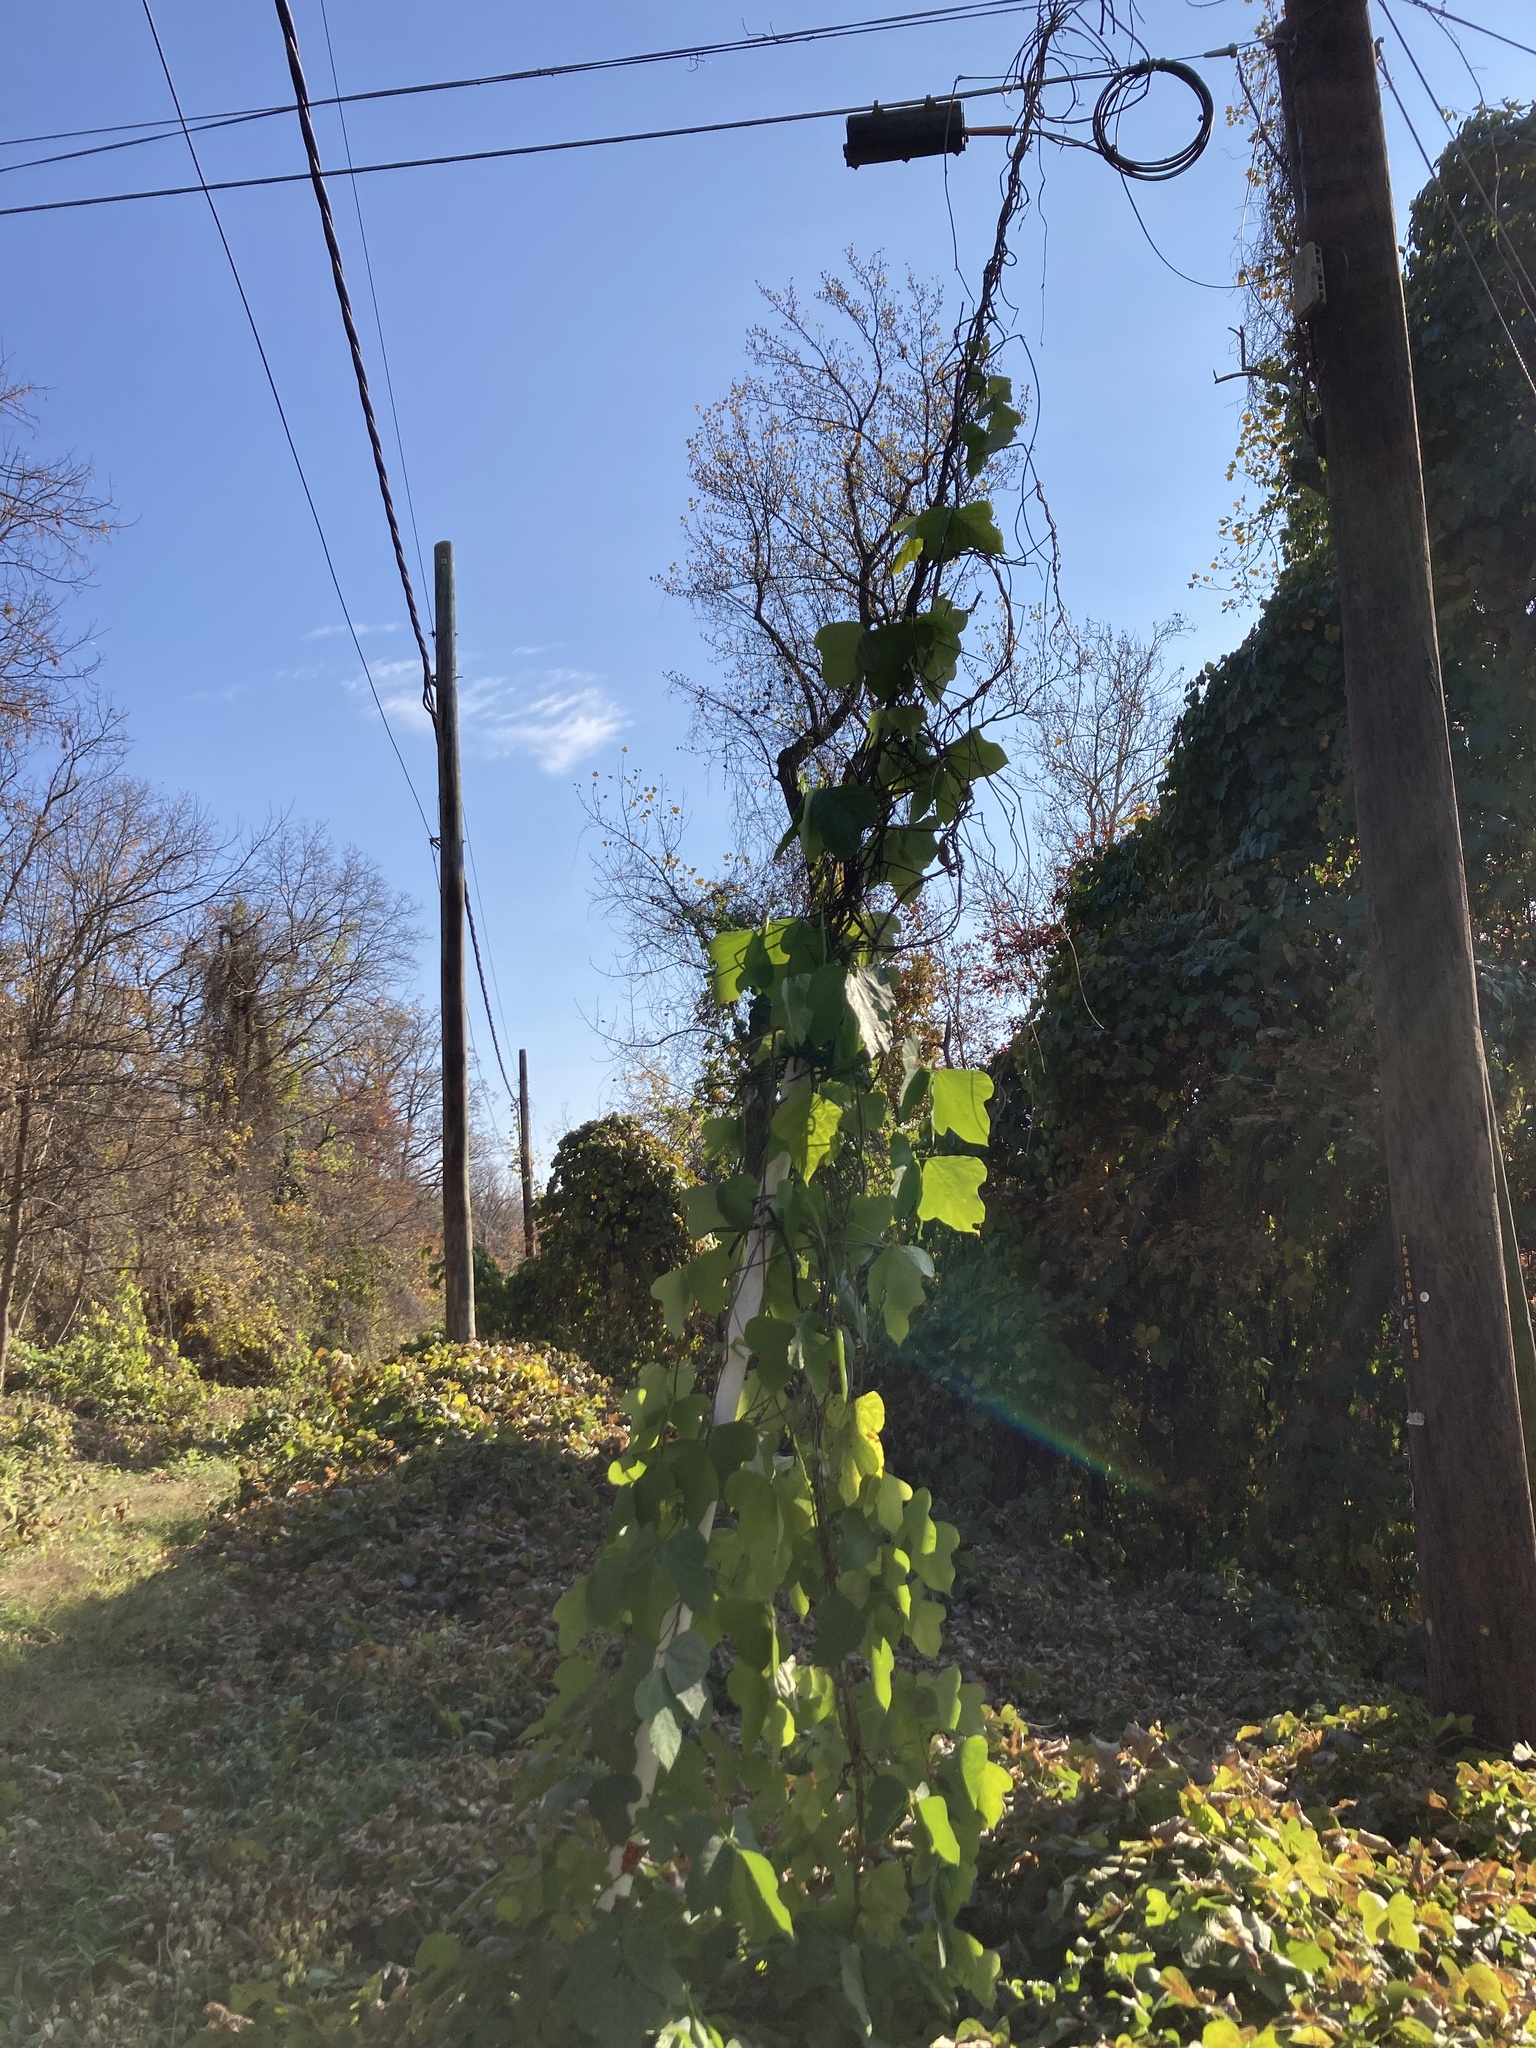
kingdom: Plantae
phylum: Tracheophyta
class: Magnoliopsida
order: Fabales
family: Fabaceae
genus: Pueraria
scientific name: Pueraria montana
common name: Kudzu
